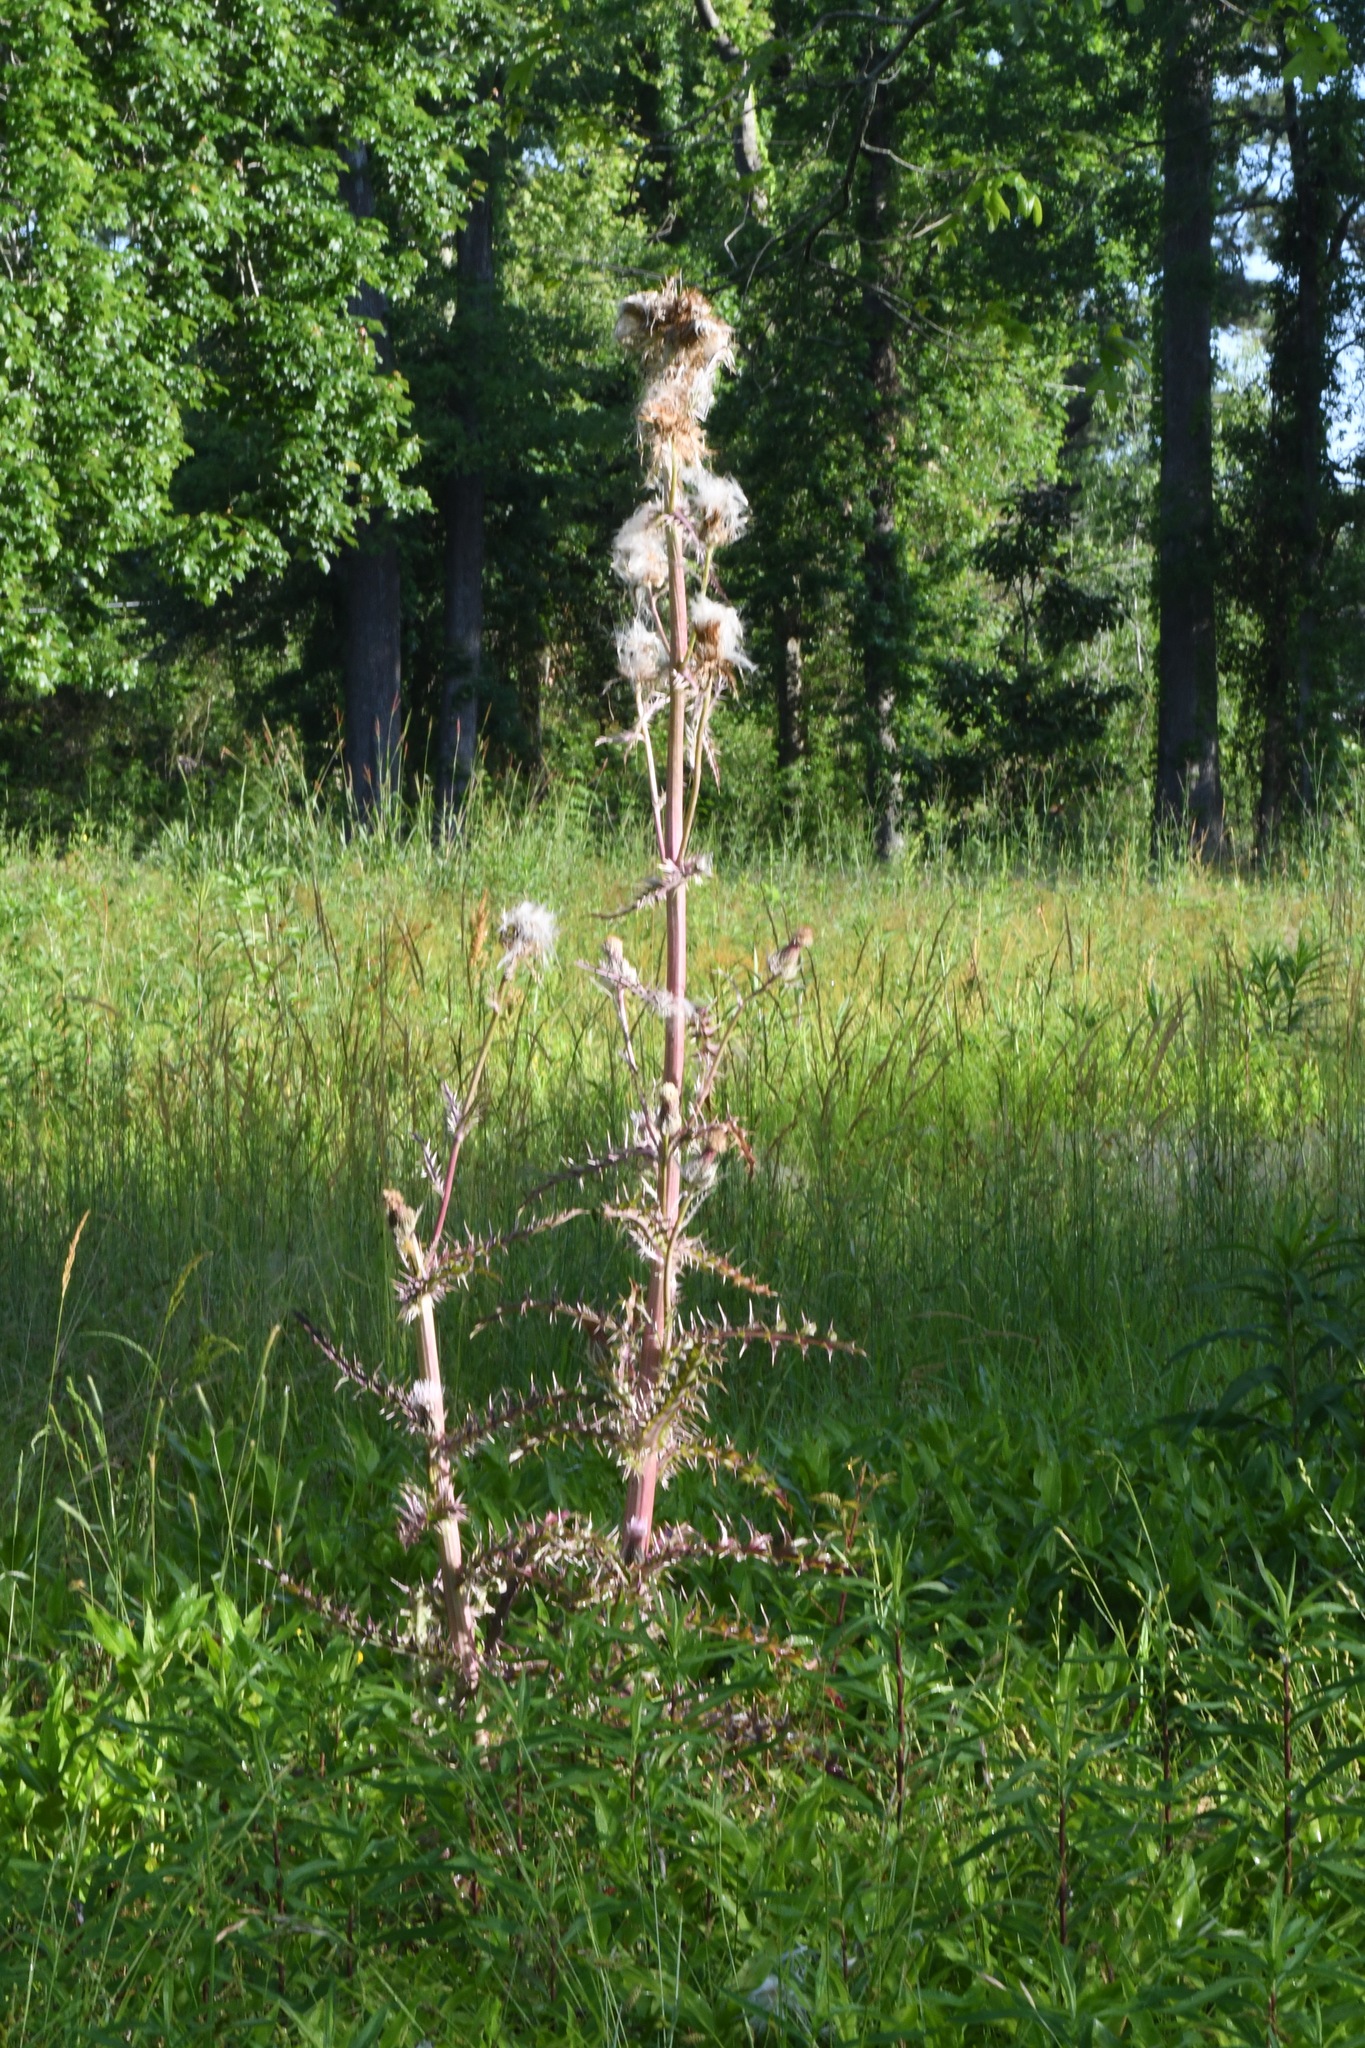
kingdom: Plantae
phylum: Tracheophyta
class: Magnoliopsida
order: Asterales
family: Asteraceae
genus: Cirsium
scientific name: Cirsium horridulum
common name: Bristly thistle
